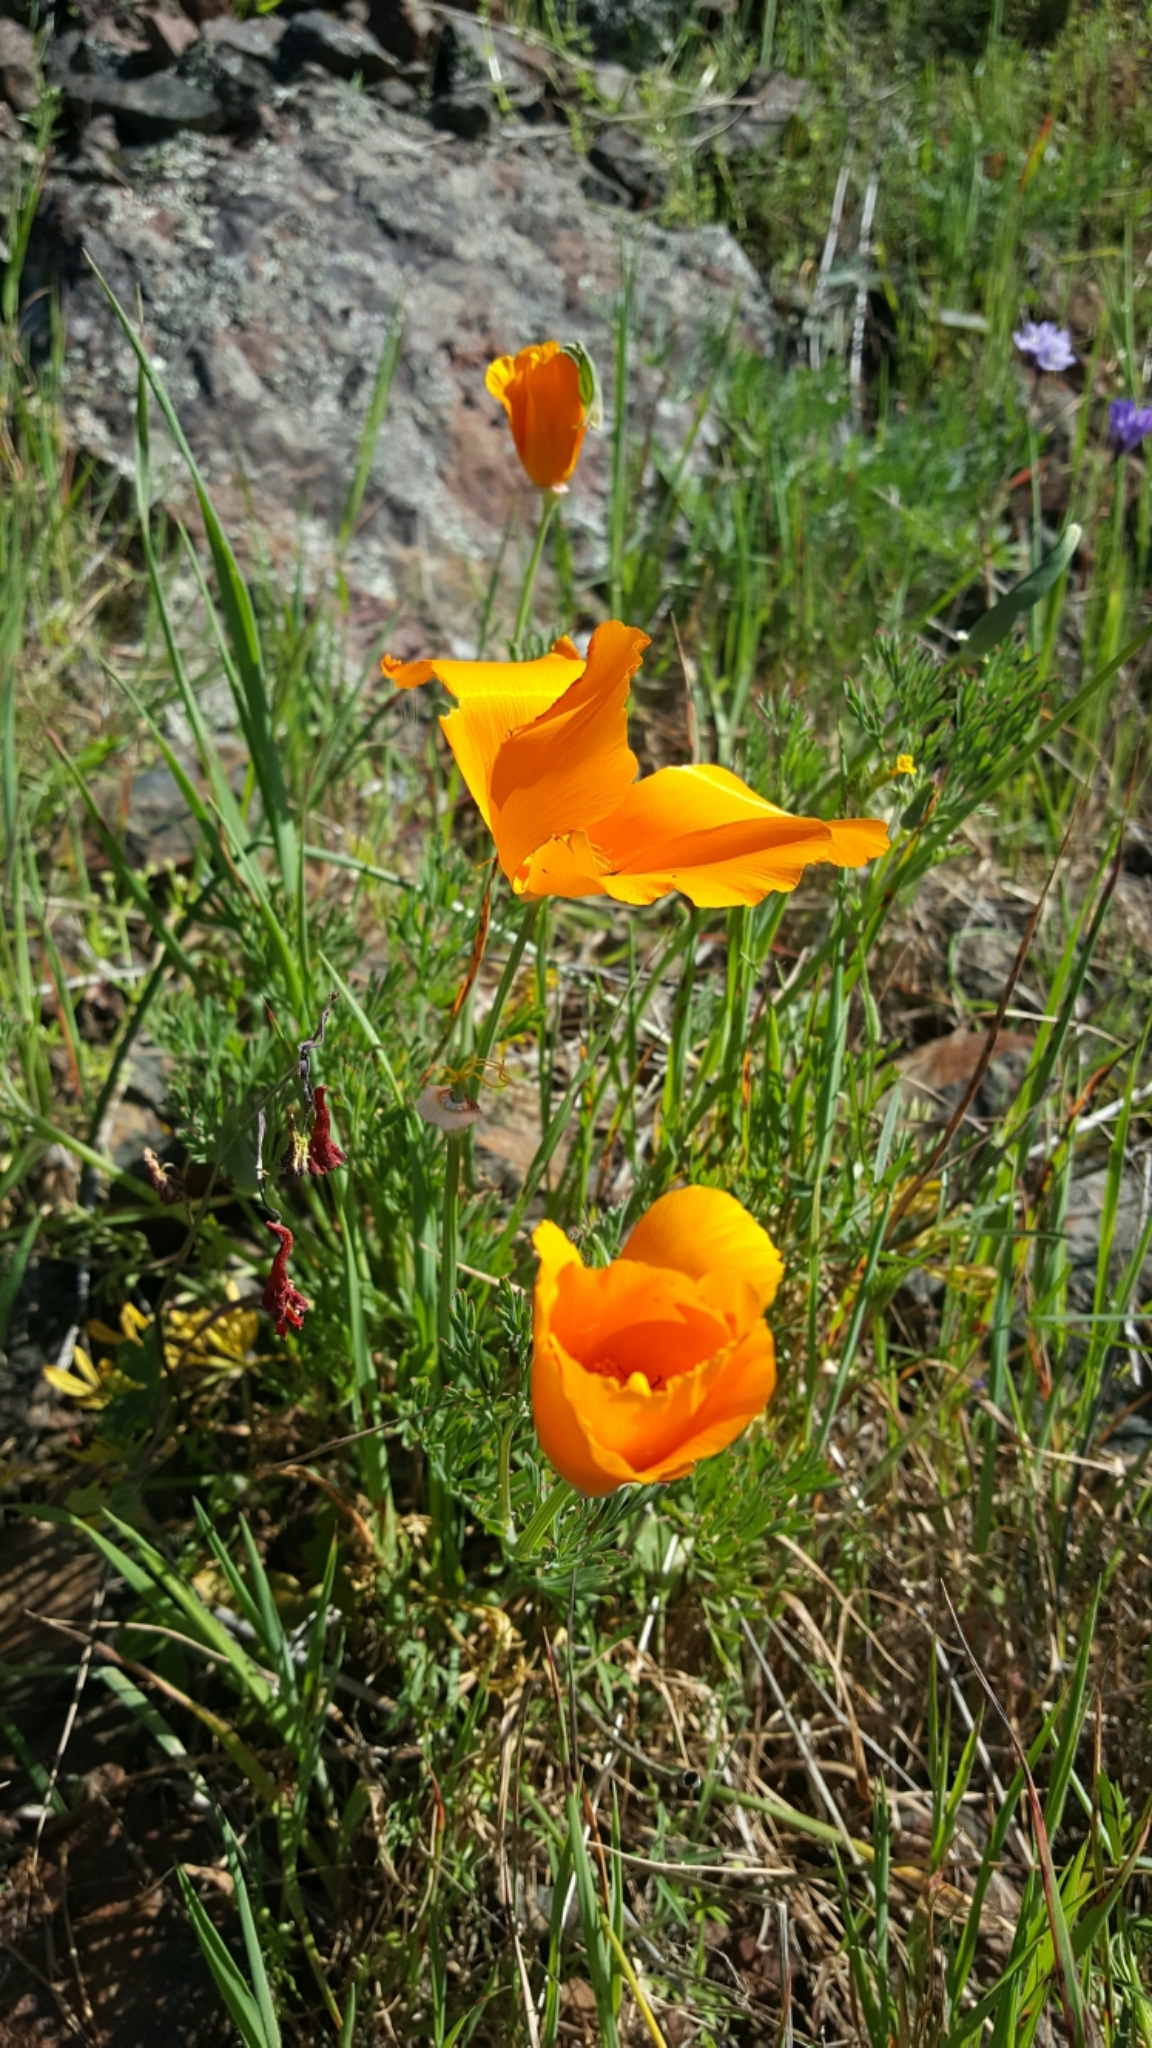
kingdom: Plantae
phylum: Tracheophyta
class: Magnoliopsida
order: Ranunculales
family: Papaveraceae
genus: Eschscholzia
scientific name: Eschscholzia californica
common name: California poppy
